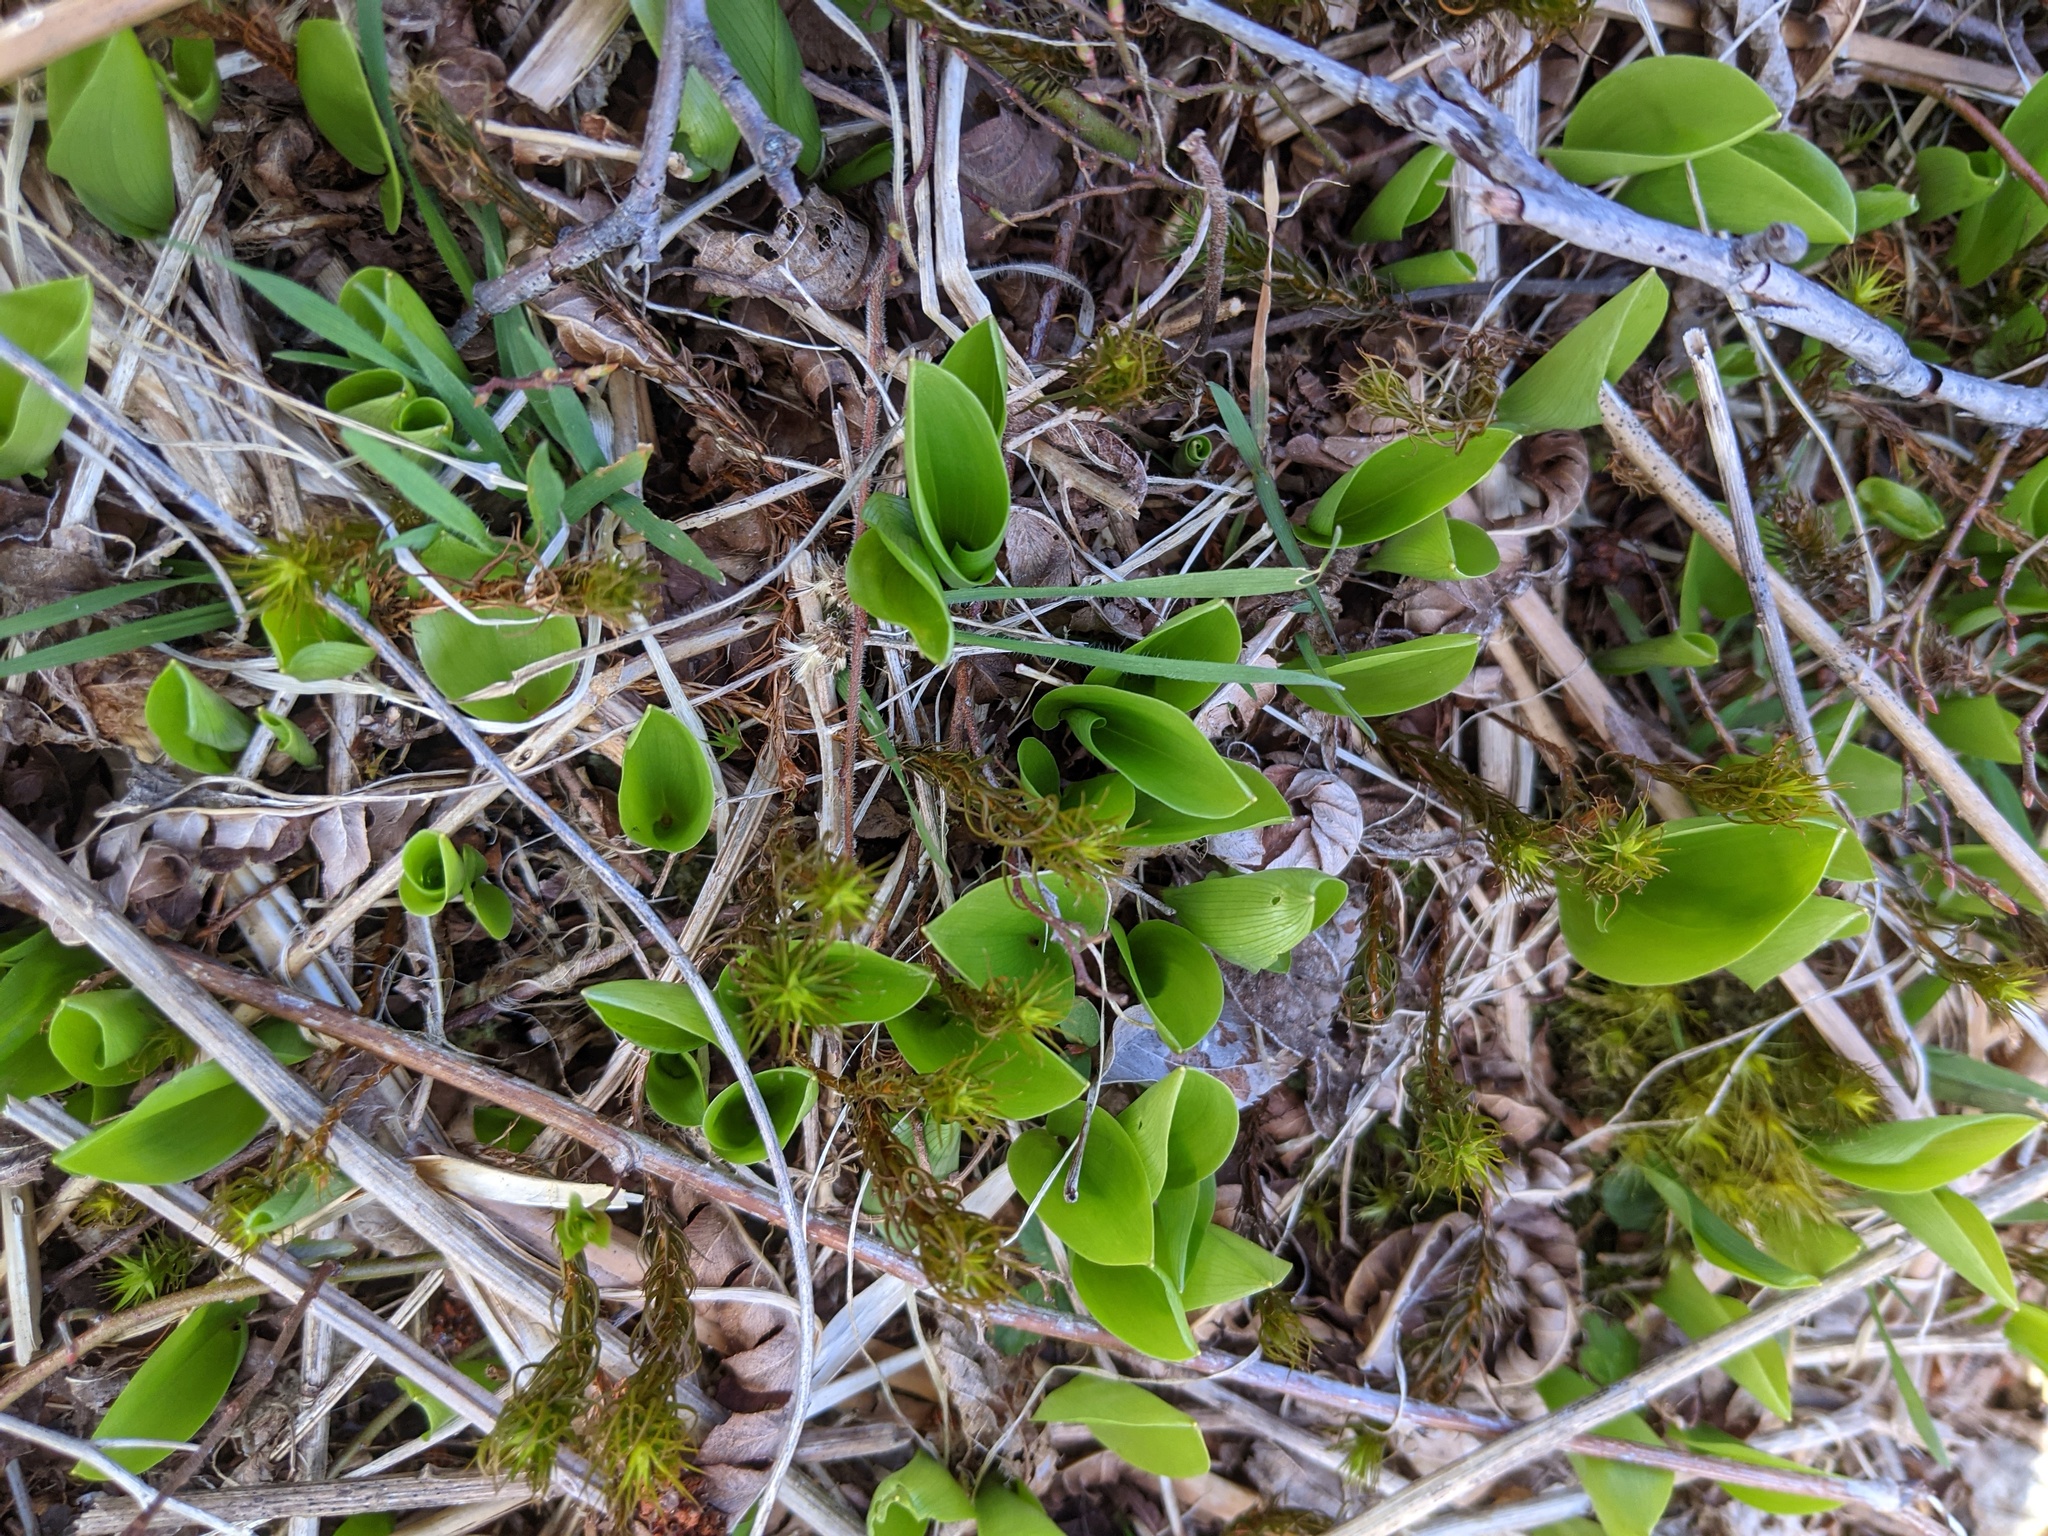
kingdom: Plantae
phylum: Tracheophyta
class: Liliopsida
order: Asparagales
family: Asparagaceae
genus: Maianthemum
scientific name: Maianthemum canadense
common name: False lily-of-the-valley
